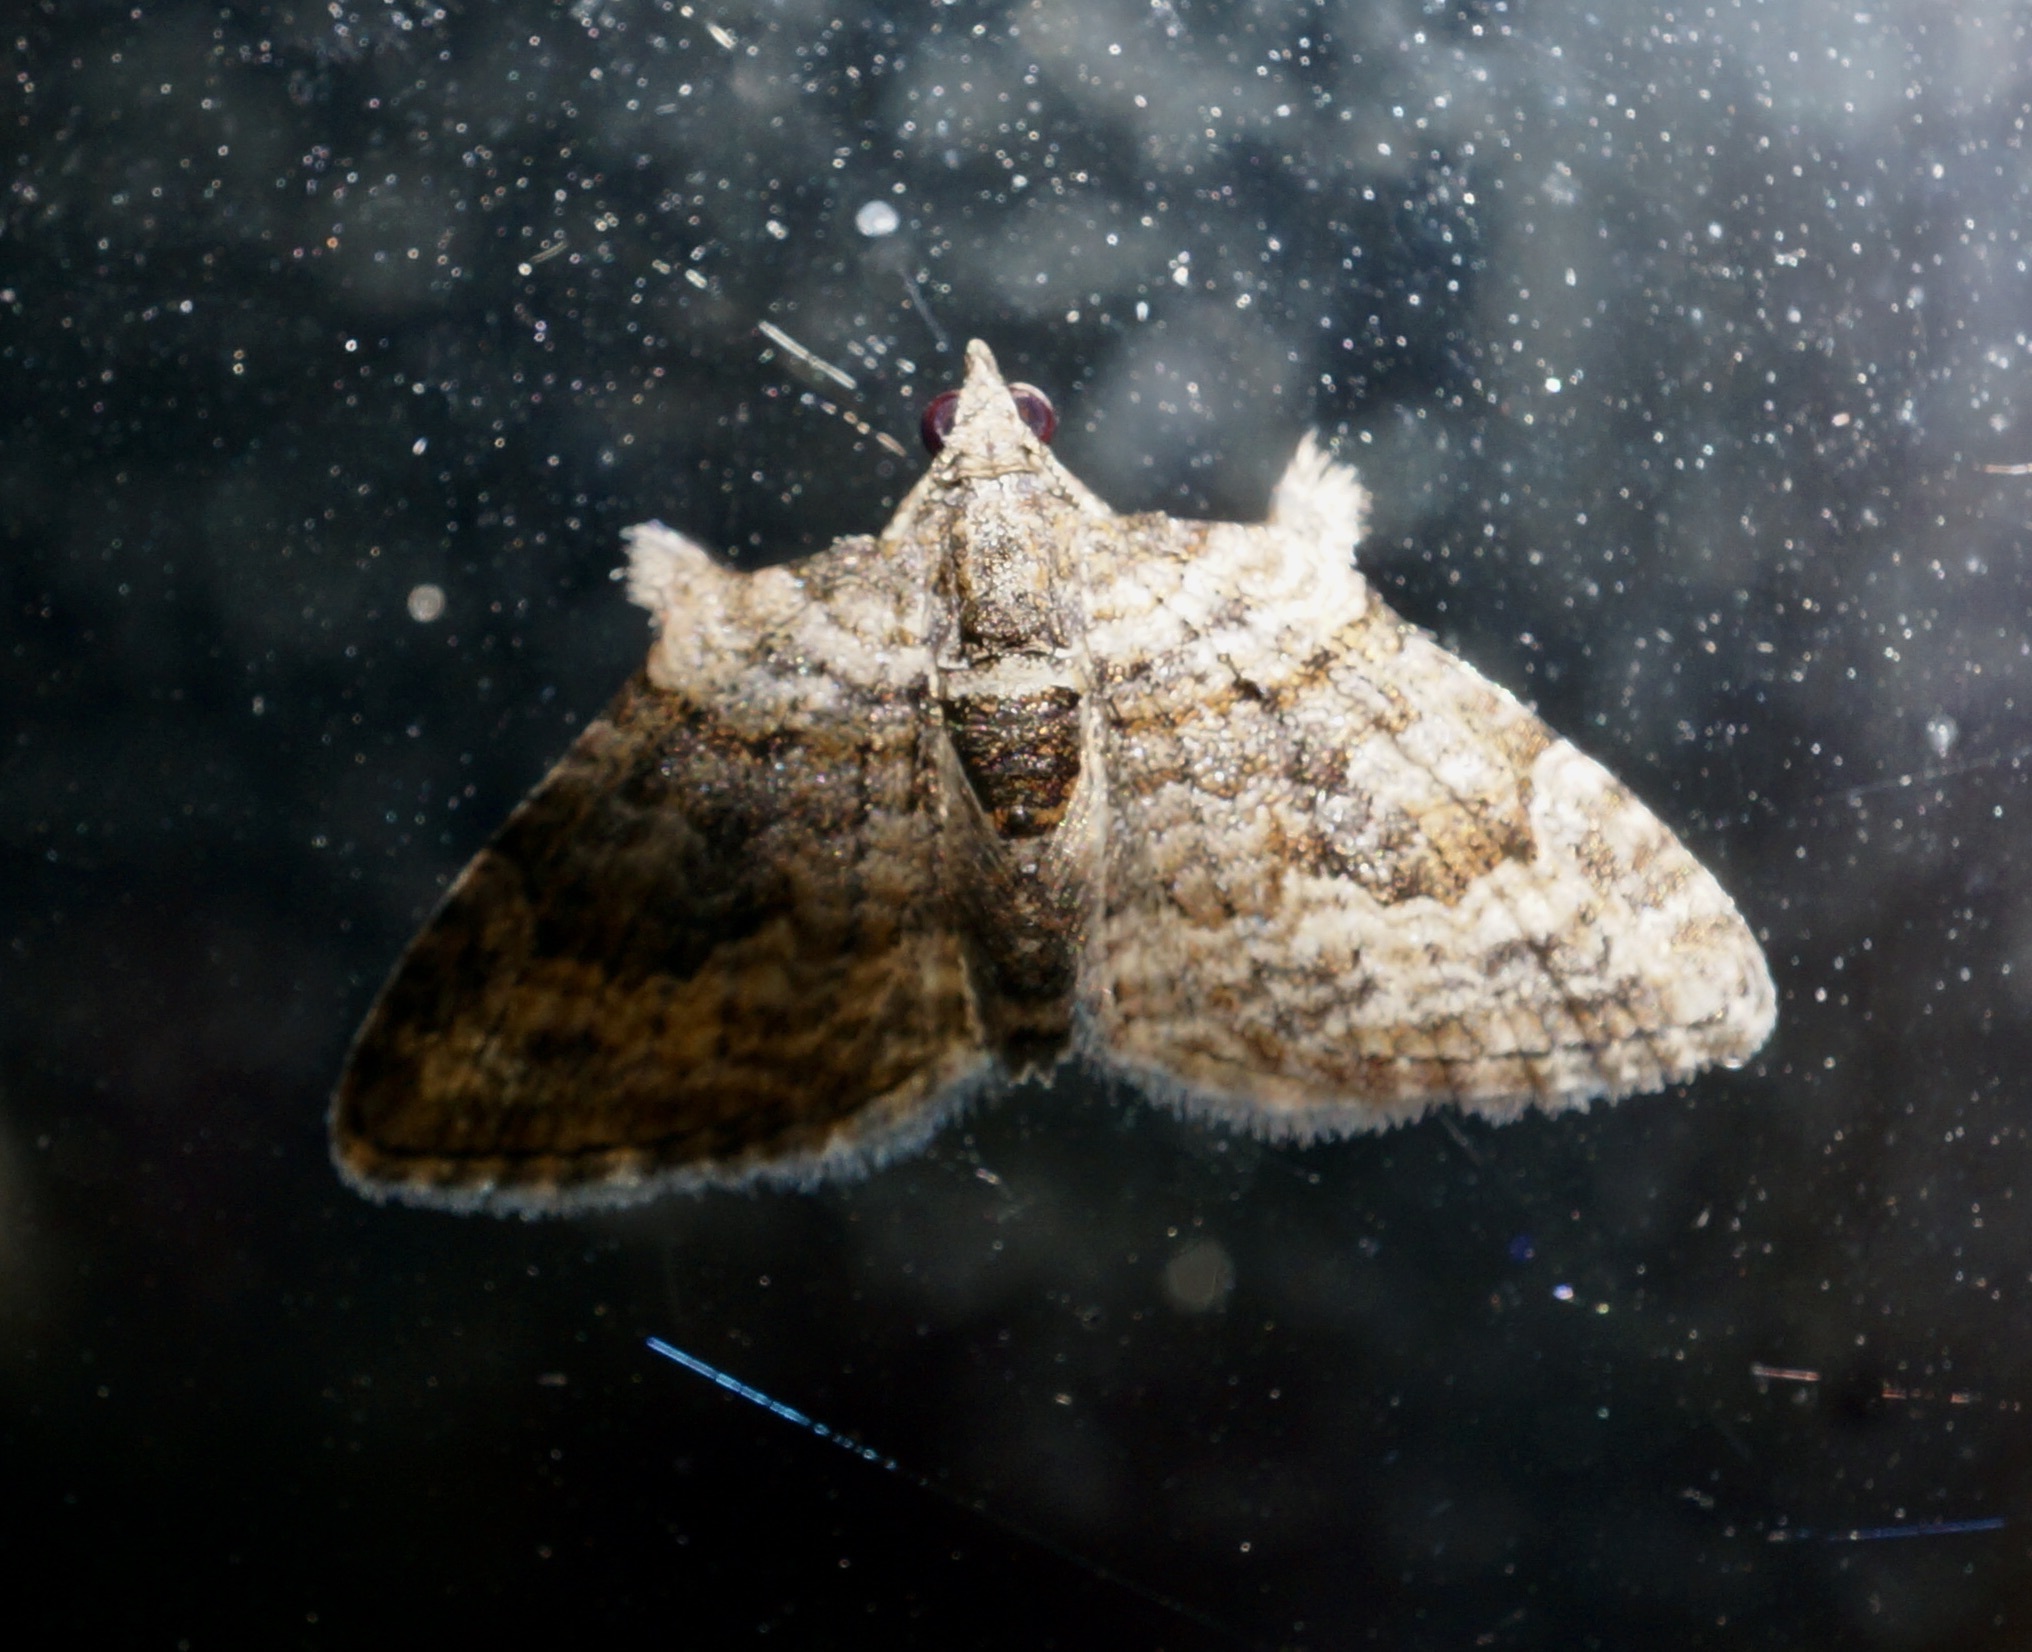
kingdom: Animalia
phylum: Arthropoda
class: Insecta
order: Lepidoptera
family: Geometridae
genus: Phrissogonus
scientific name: Phrissogonus laticostata
